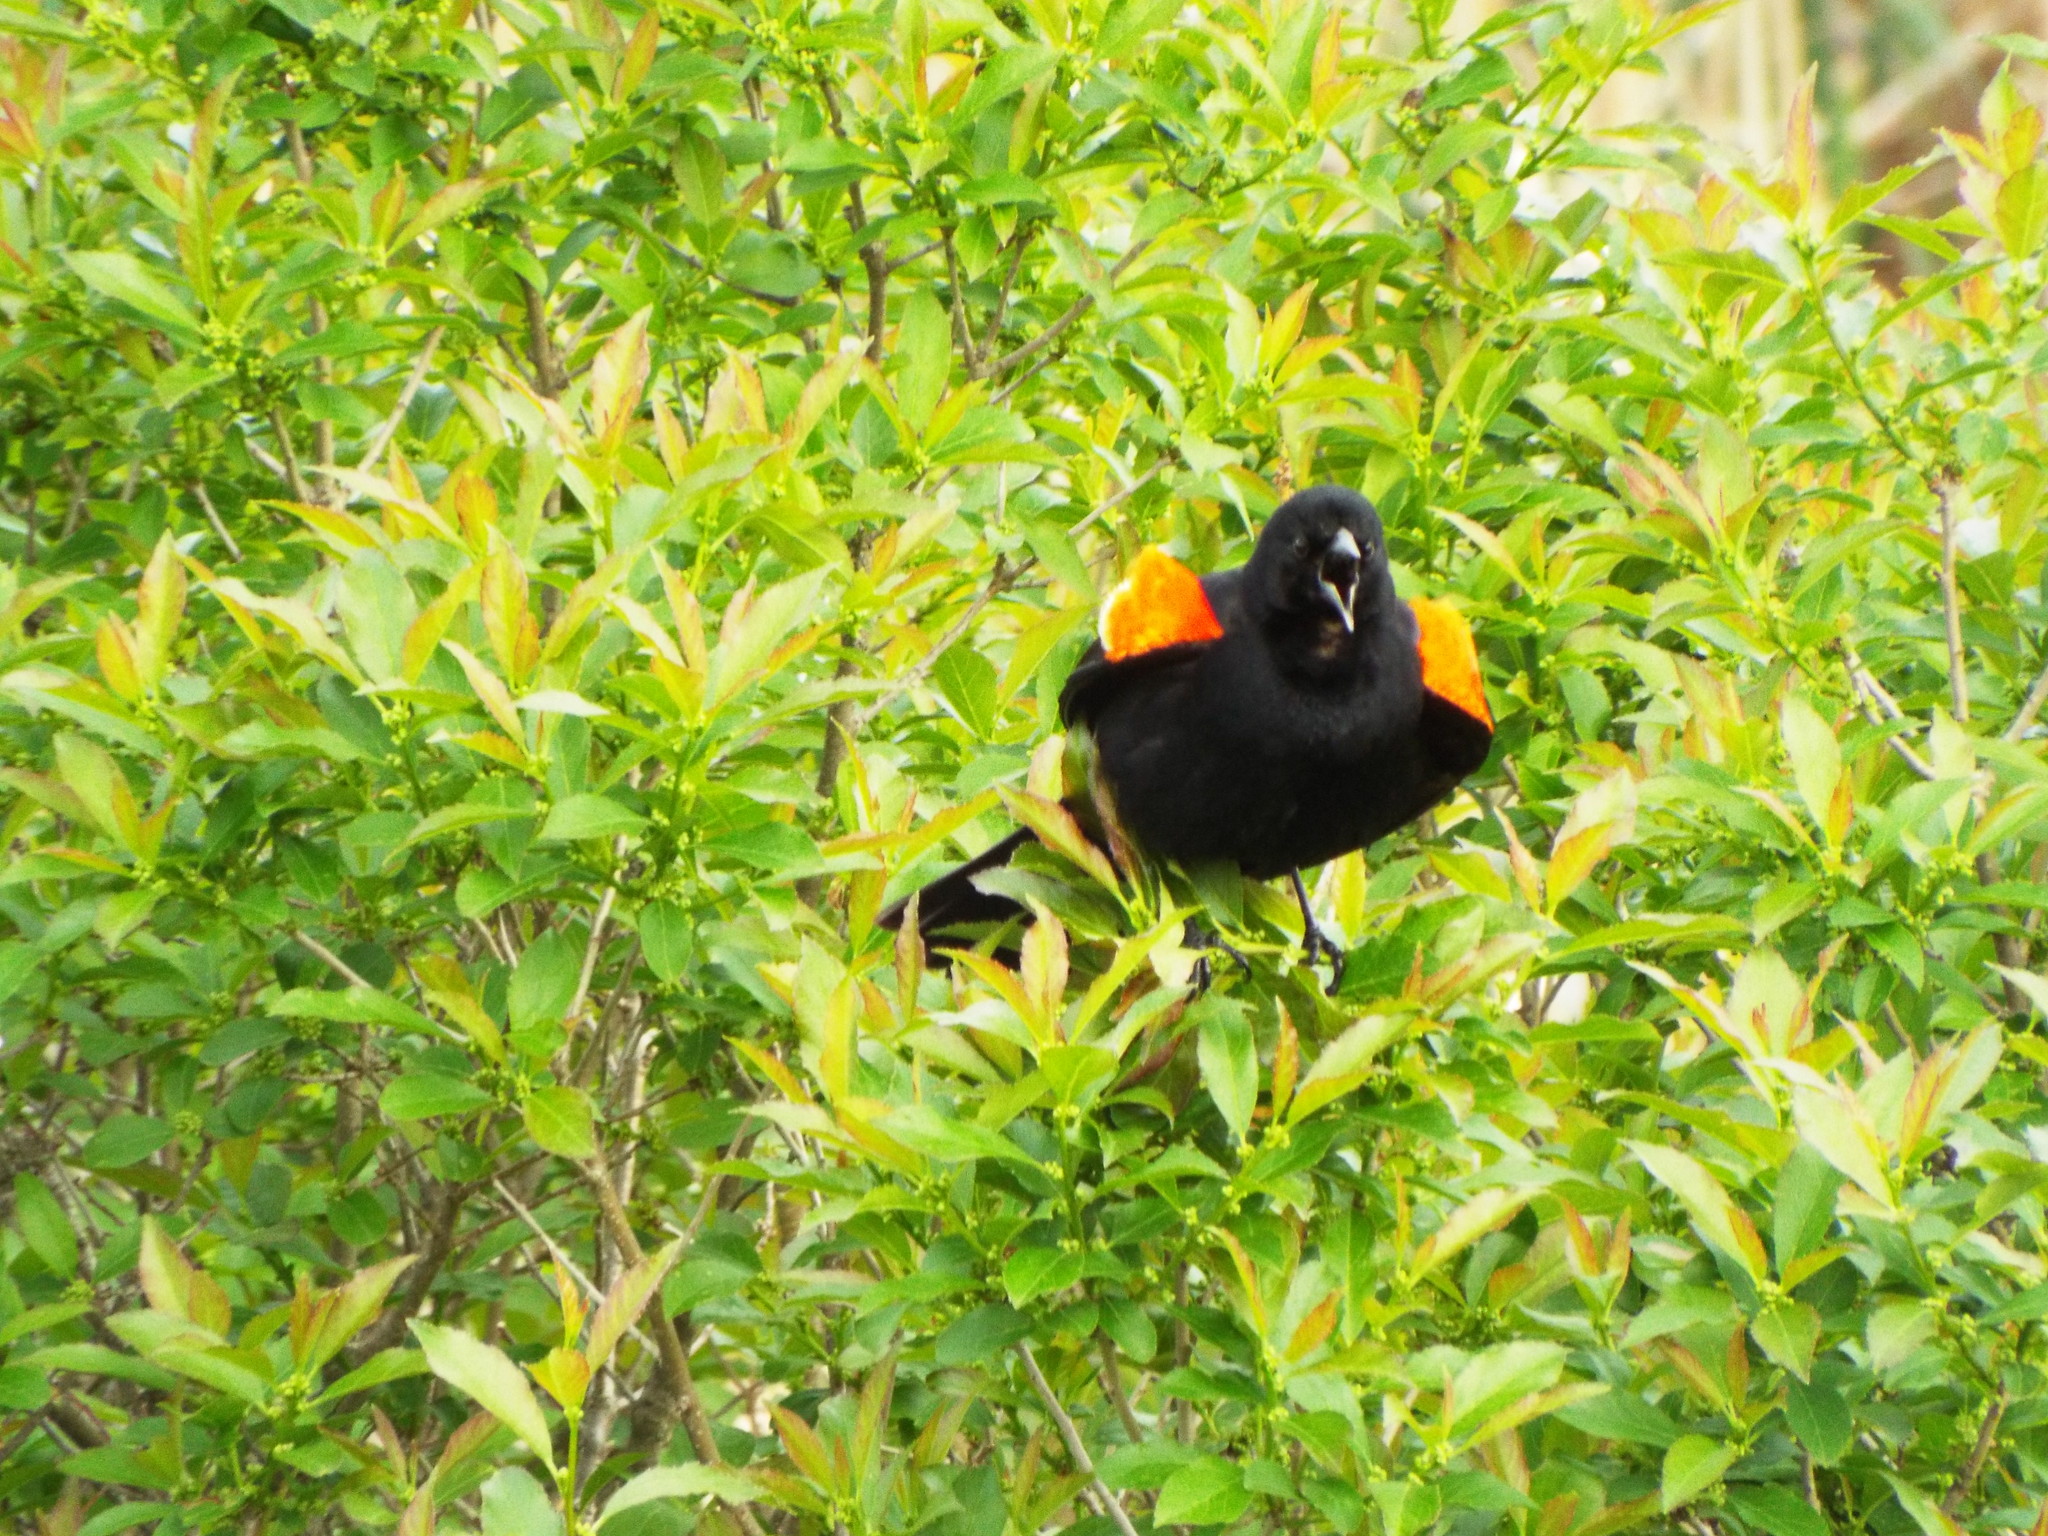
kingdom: Animalia
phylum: Chordata
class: Aves
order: Passeriformes
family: Icteridae
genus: Agelaius
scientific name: Agelaius phoeniceus
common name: Red-winged blackbird
